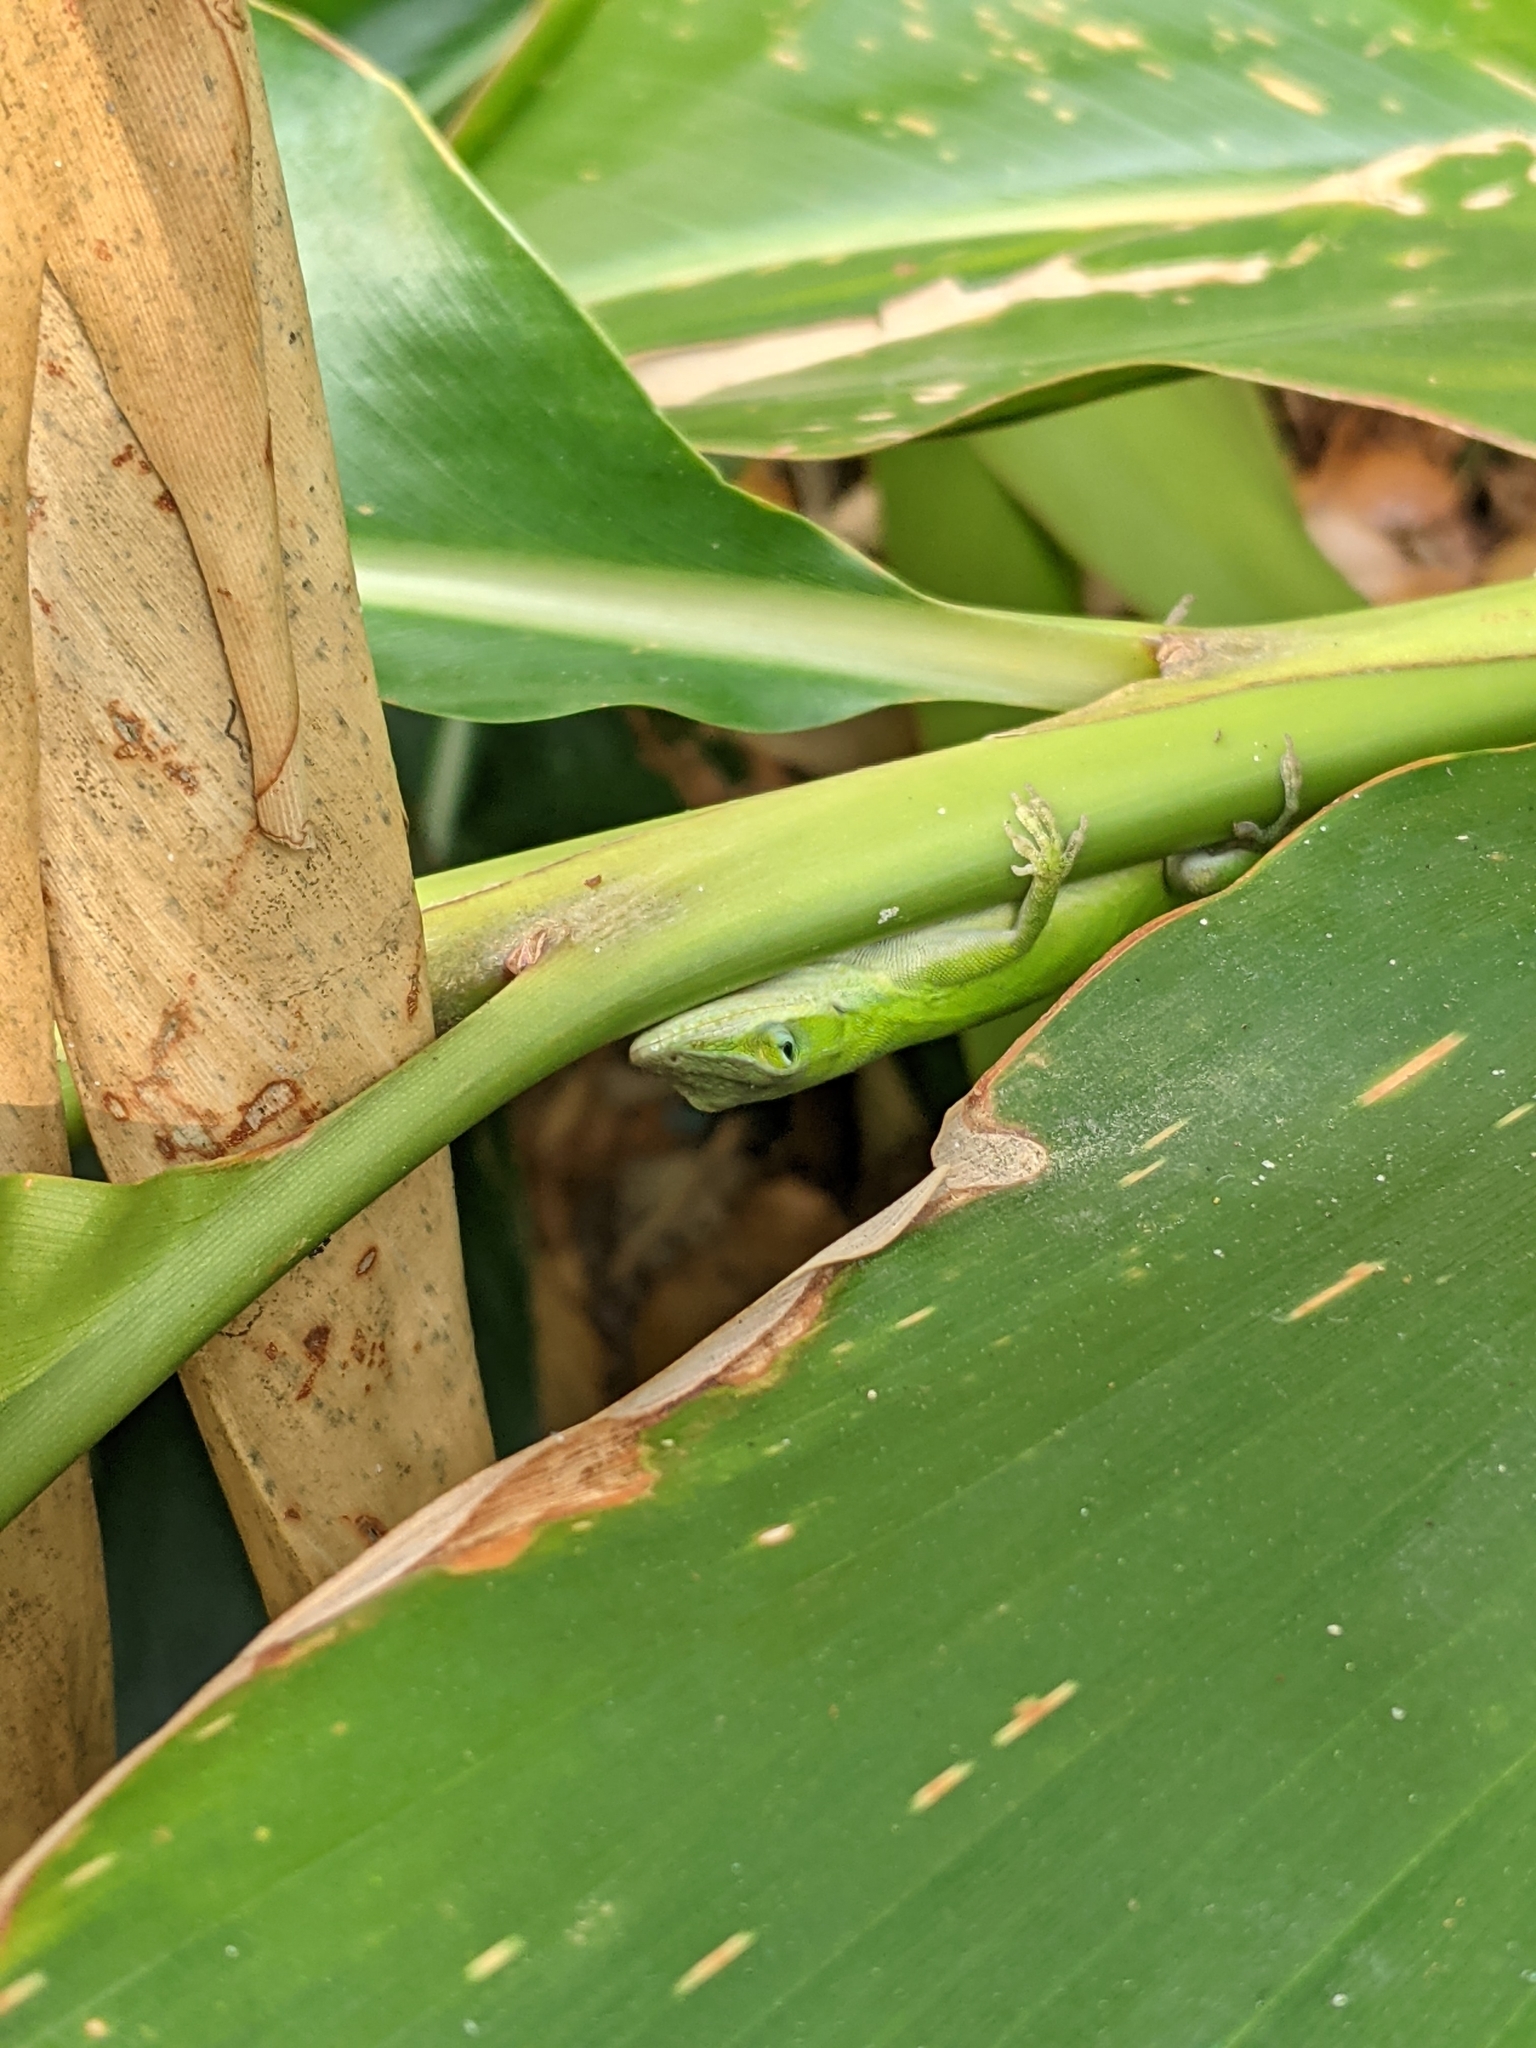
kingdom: Animalia
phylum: Chordata
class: Squamata
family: Dactyloidae
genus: Anolis
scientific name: Anolis carolinensis
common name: Green anole
